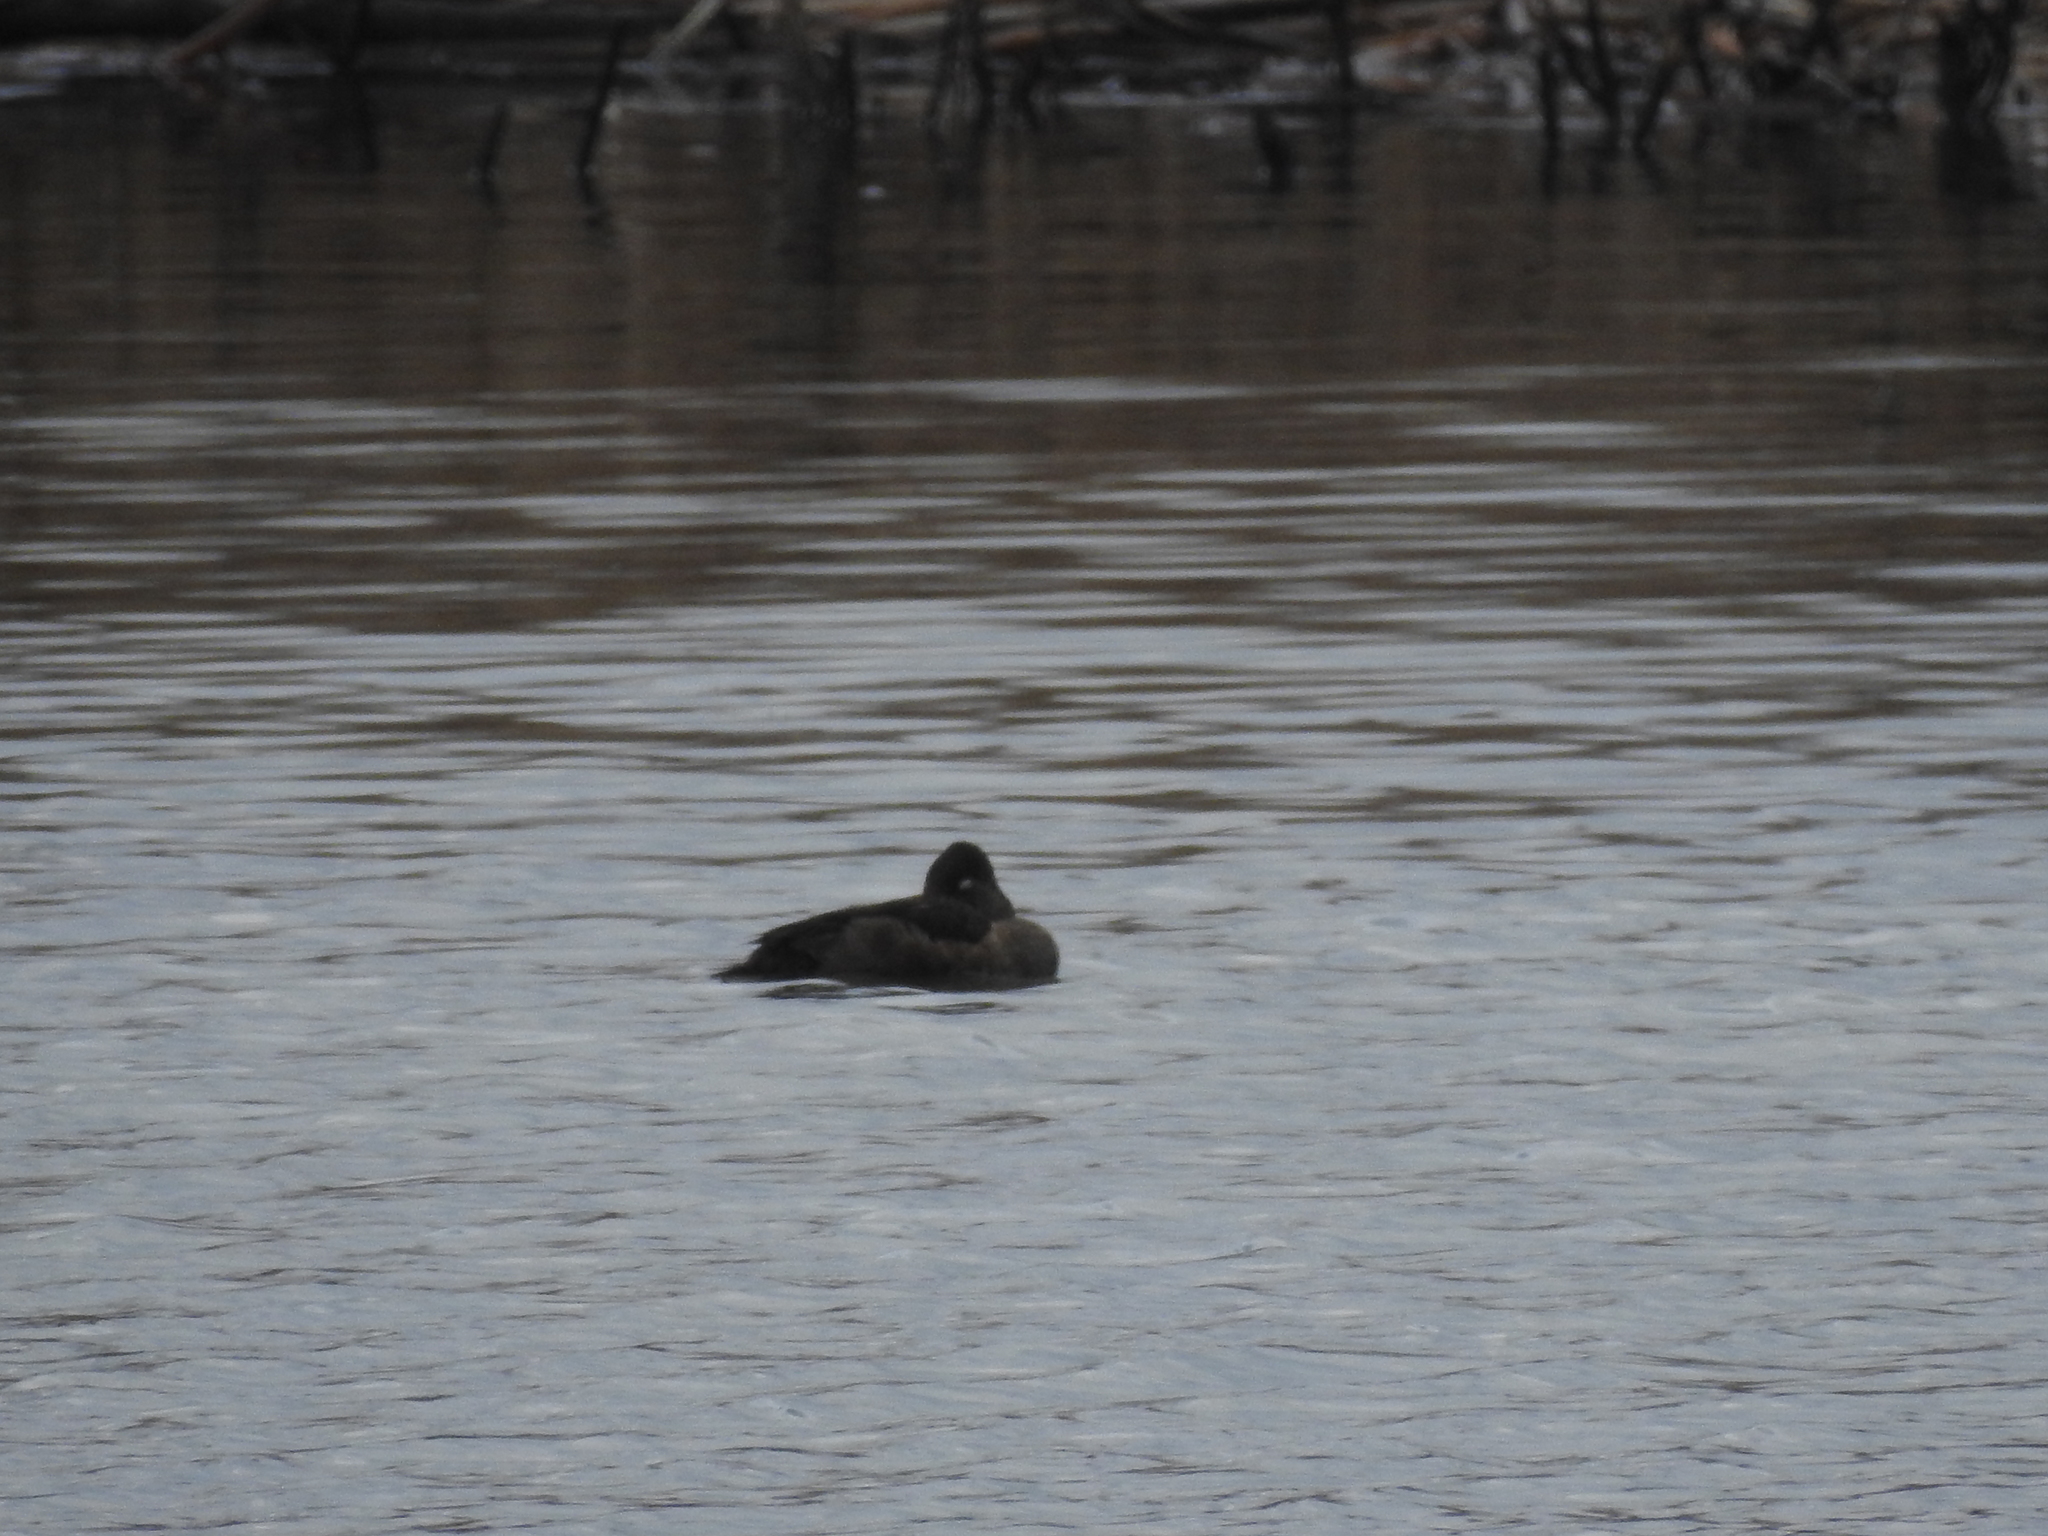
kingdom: Animalia
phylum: Chordata
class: Aves
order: Anseriformes
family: Anatidae
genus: Aythya
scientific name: Aythya collaris
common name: Ring-necked duck
